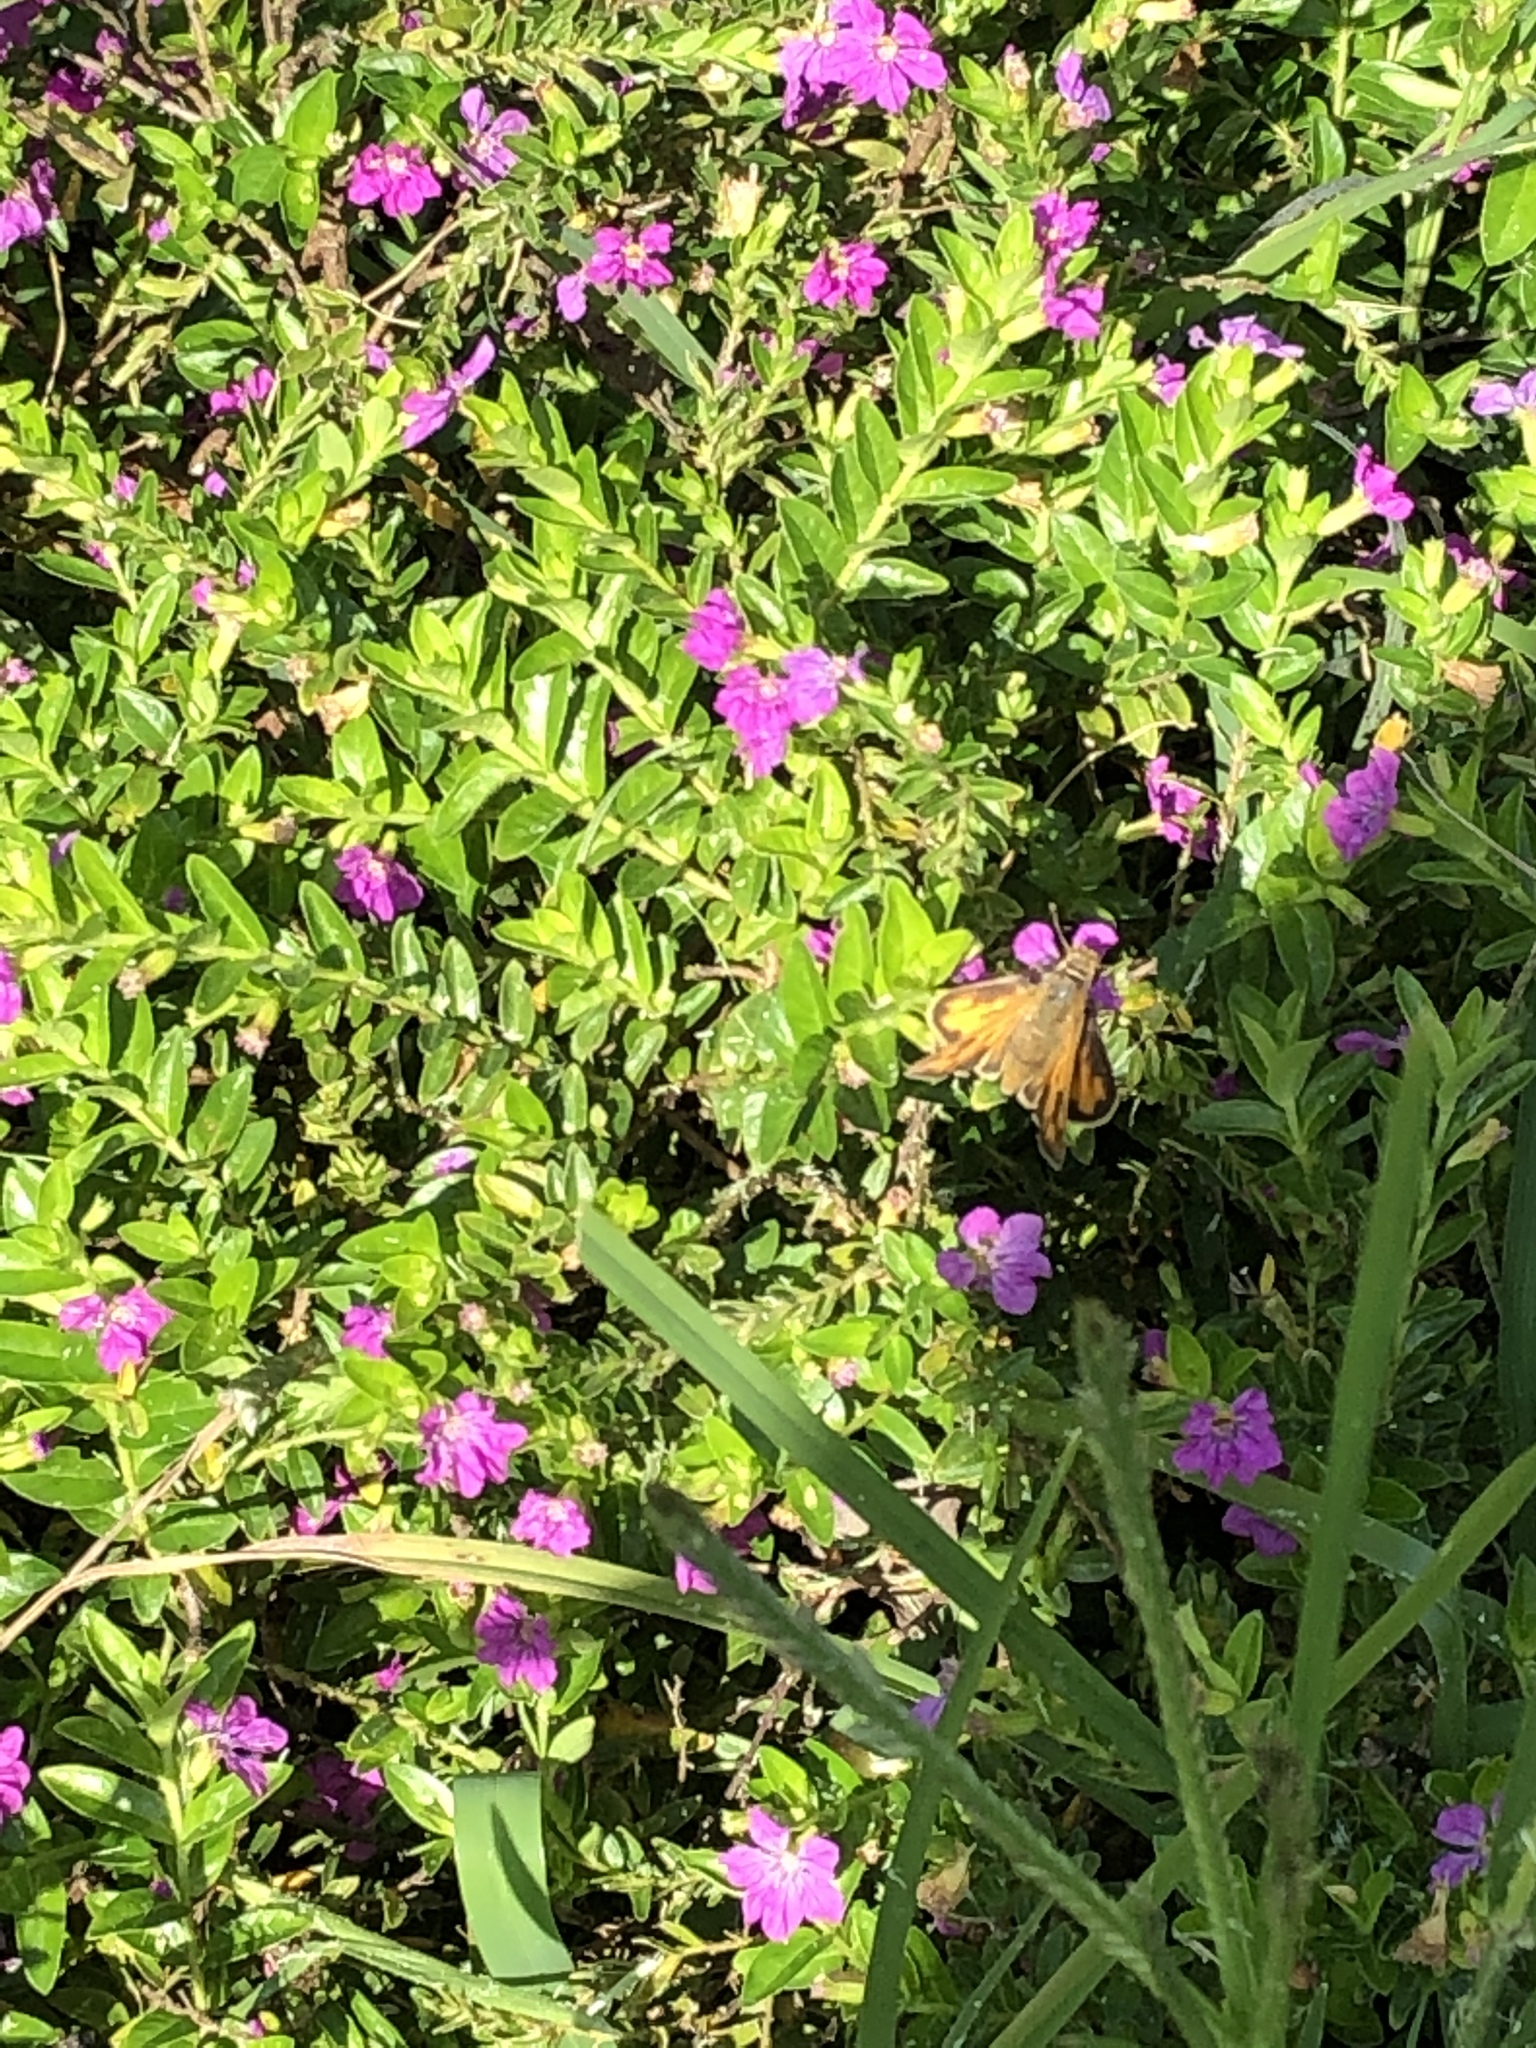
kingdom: Animalia
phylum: Arthropoda
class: Insecta
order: Lepidoptera
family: Hesperiidae
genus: Hylephila
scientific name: Hylephila phyleus
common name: Fiery skipper
